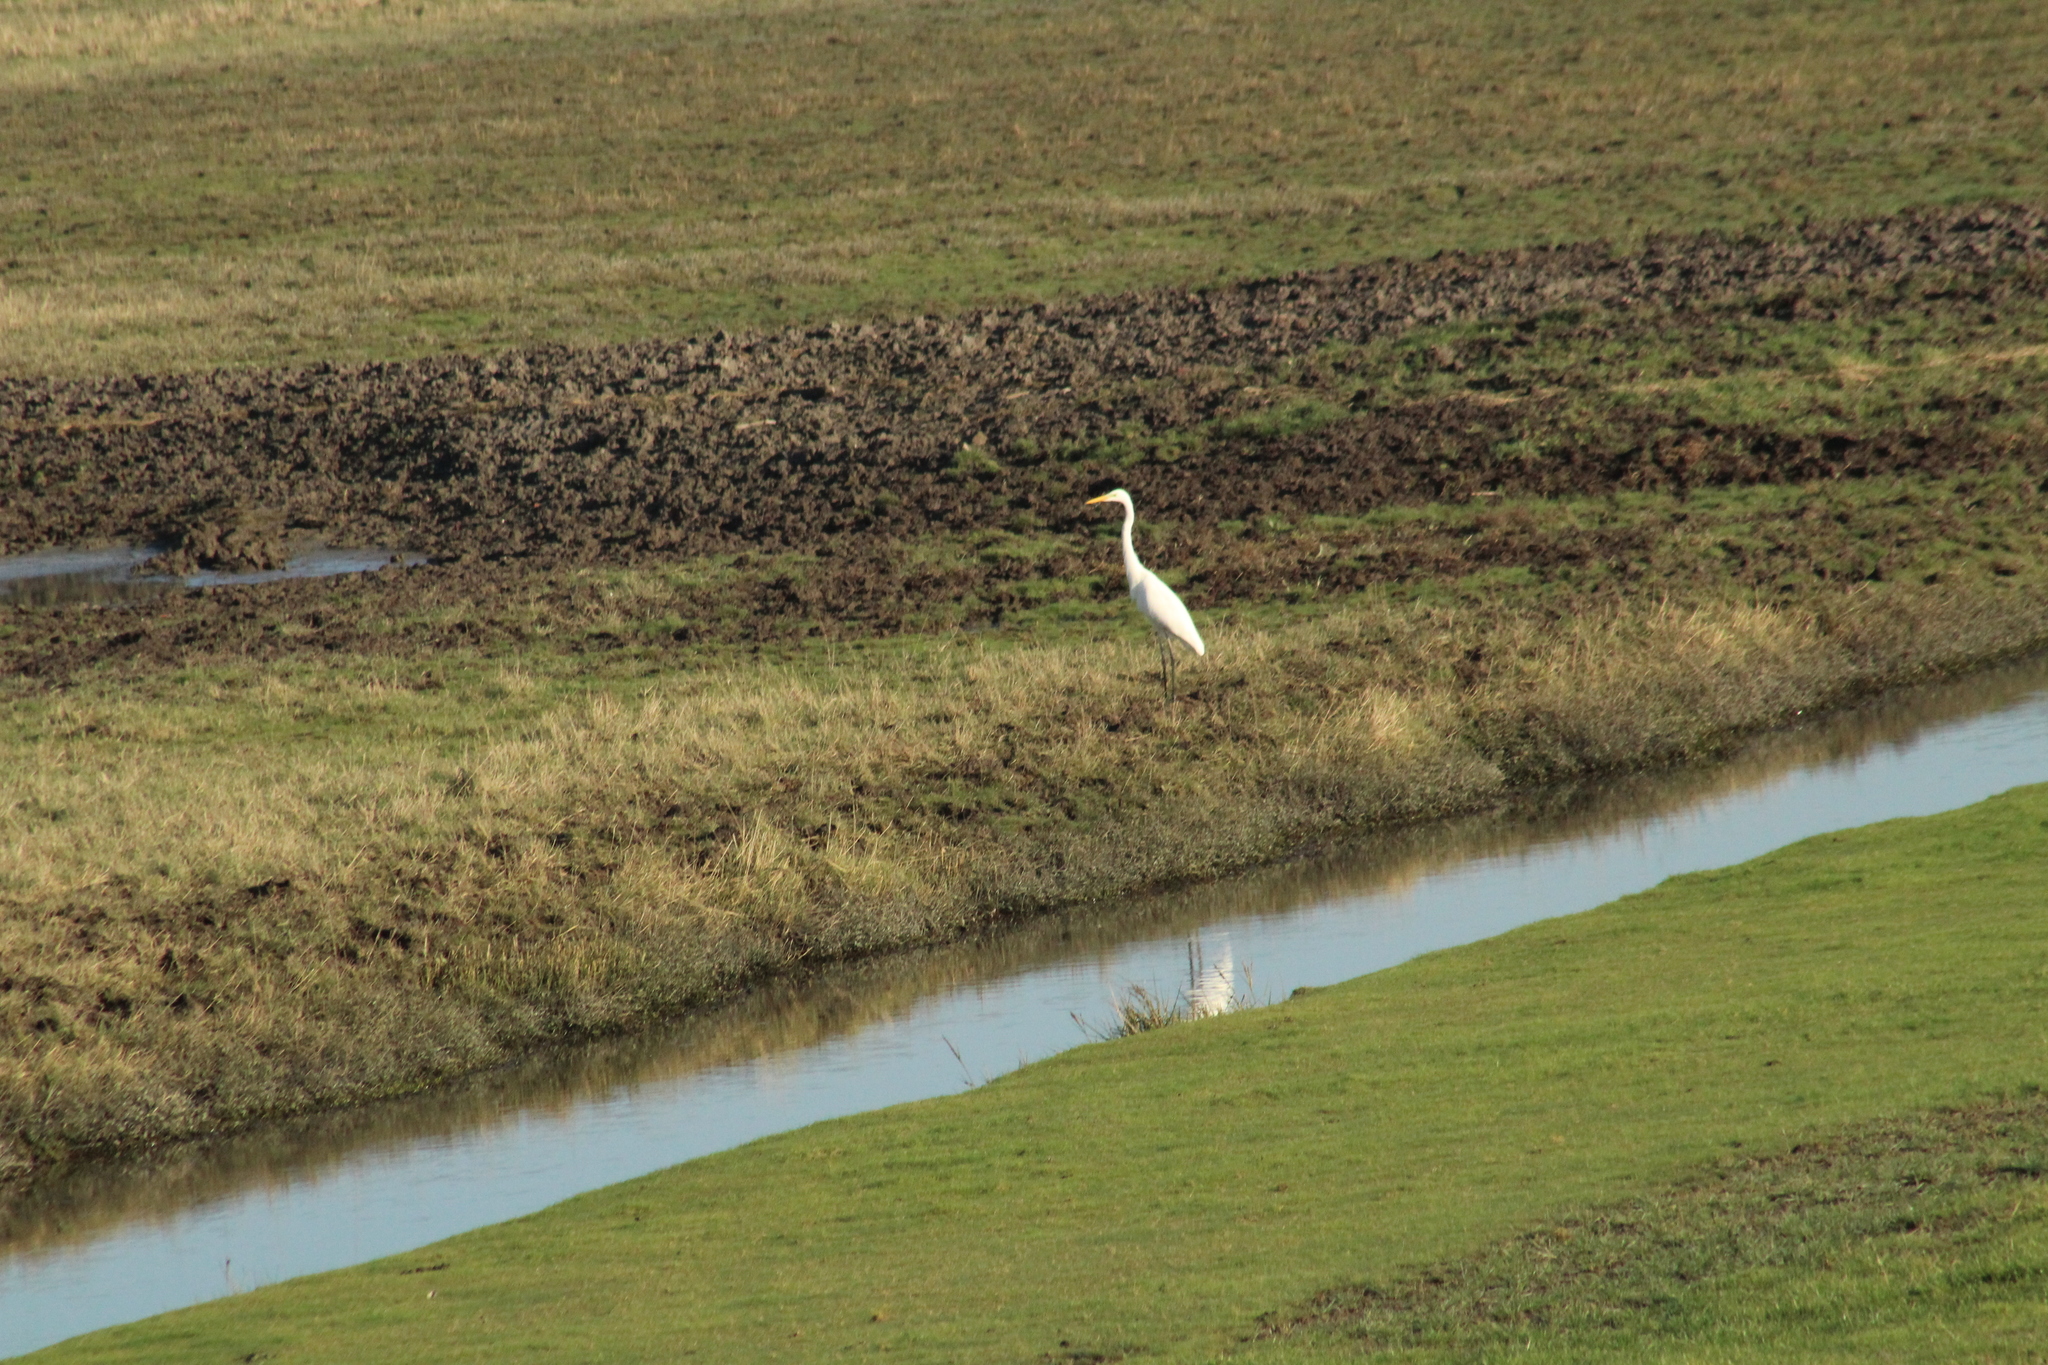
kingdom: Animalia
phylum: Chordata
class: Aves
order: Pelecaniformes
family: Ardeidae
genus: Ardea
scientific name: Ardea alba
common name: Great egret
